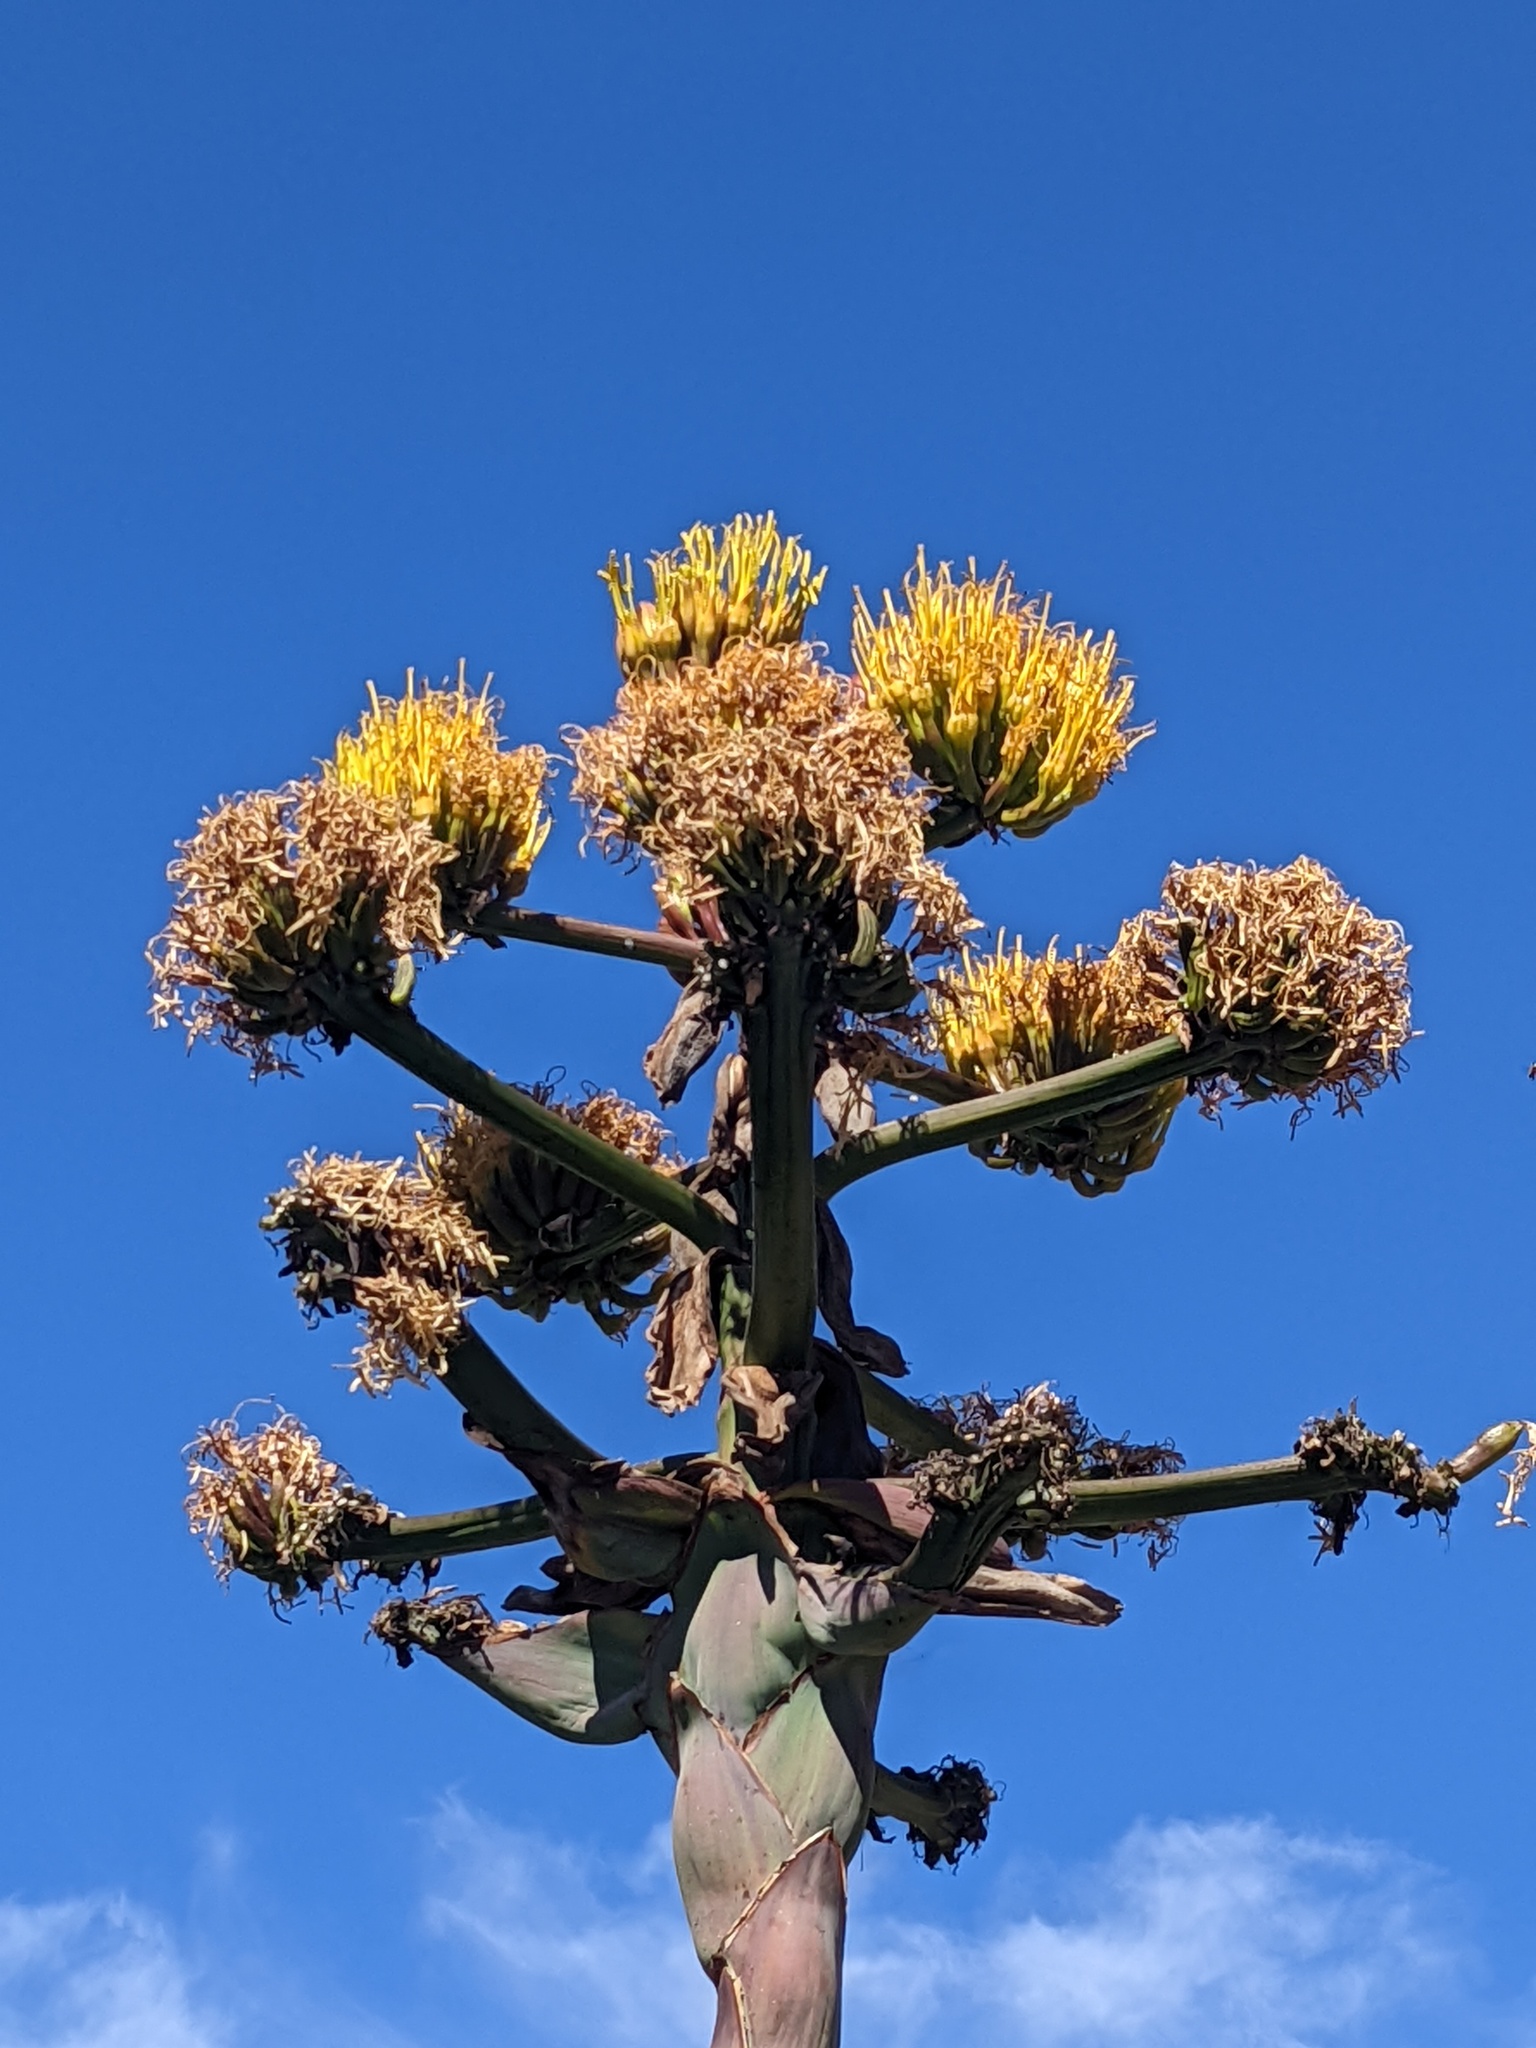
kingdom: Plantae
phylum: Tracheophyta
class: Liliopsida
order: Asparagales
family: Asparagaceae
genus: Agave
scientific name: Agave shawii
